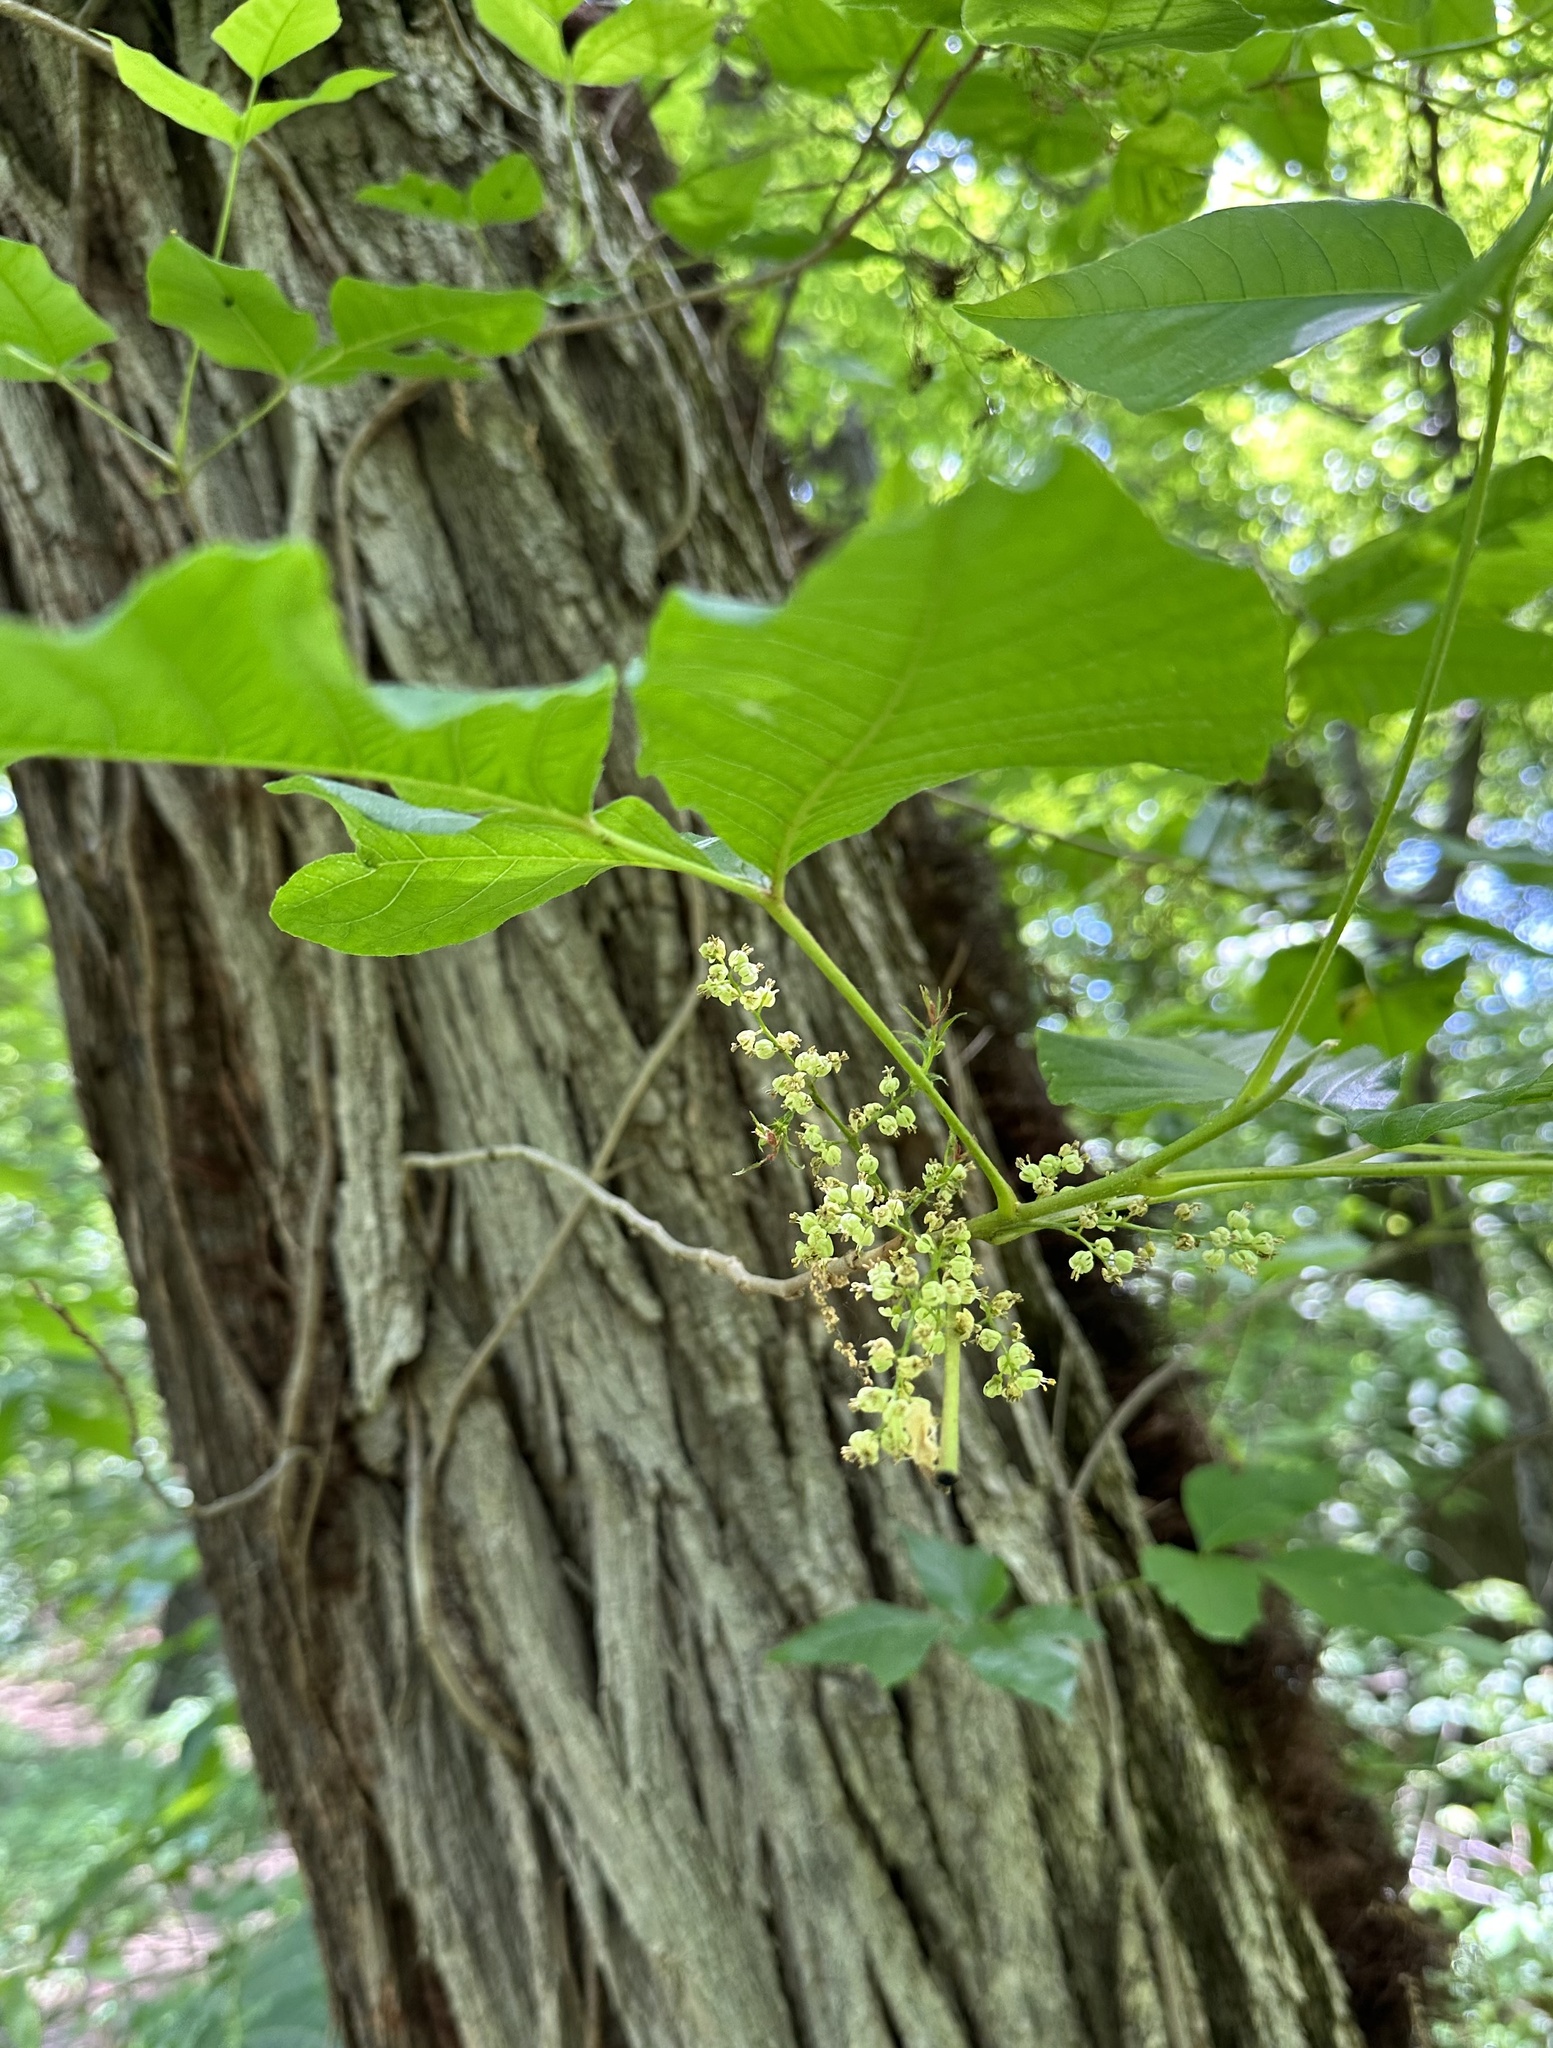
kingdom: Plantae
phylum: Tracheophyta
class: Magnoliopsida
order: Sapindales
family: Anacardiaceae
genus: Toxicodendron
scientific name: Toxicodendron radicans
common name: Poison ivy
